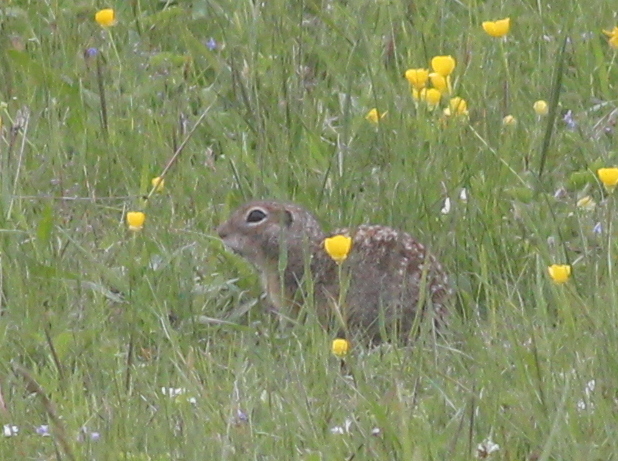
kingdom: Animalia
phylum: Chordata
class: Mammalia
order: Rodentia
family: Sciuridae
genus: Spermophilus
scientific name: Spermophilus suslicus
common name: Speckled ground squirrel
